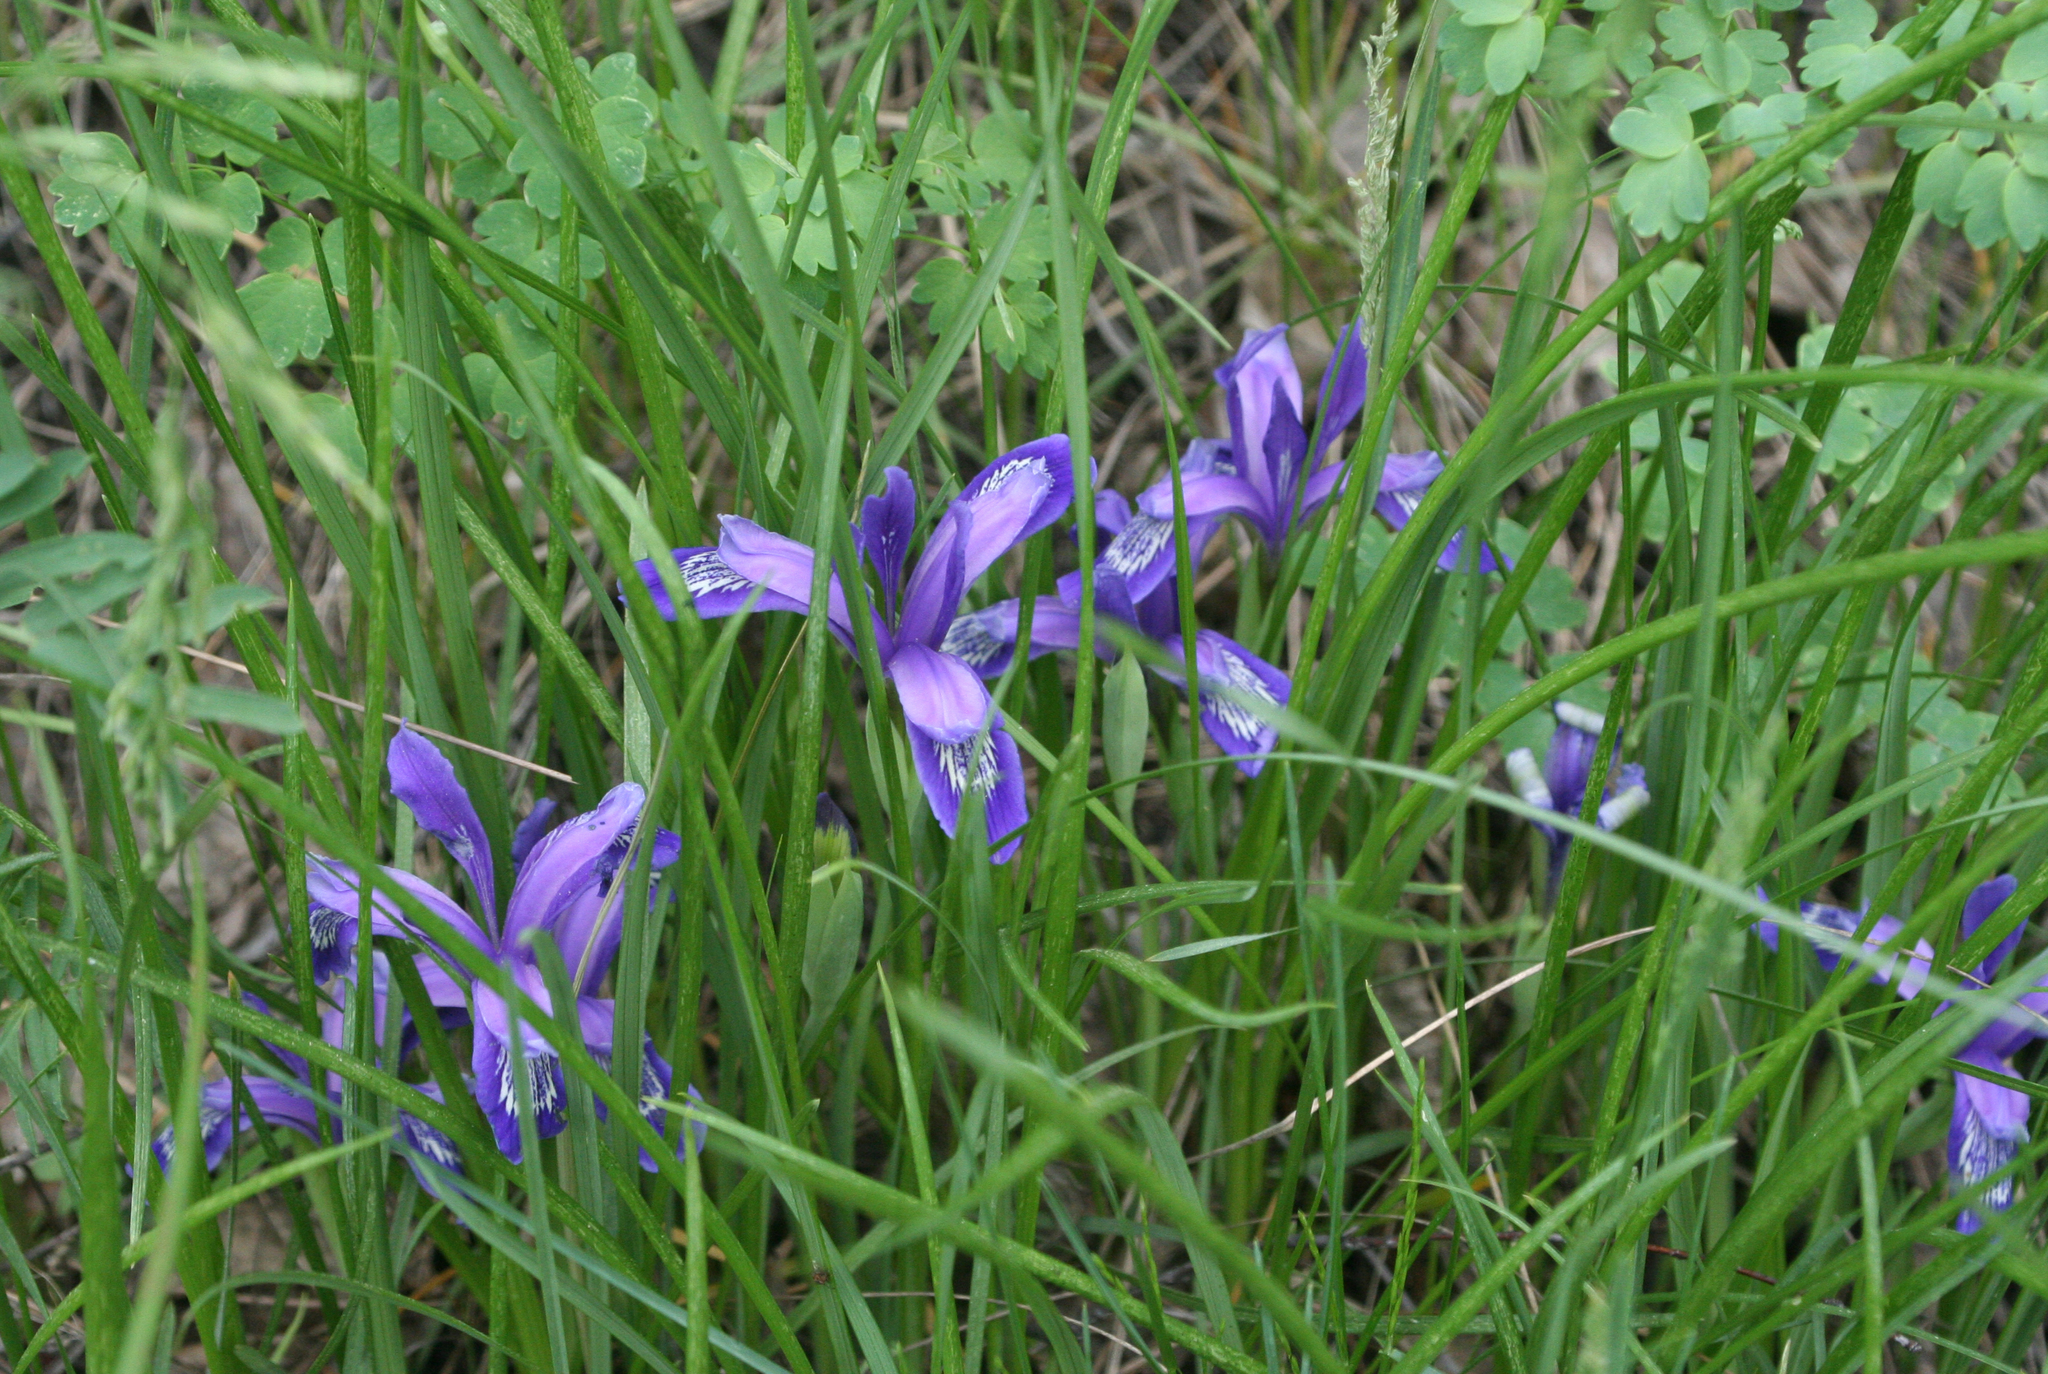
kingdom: Plantae
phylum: Tracheophyta
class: Liliopsida
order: Asparagales
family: Iridaceae
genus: Iris
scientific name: Iris ruthenica
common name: Purple-bract iris
